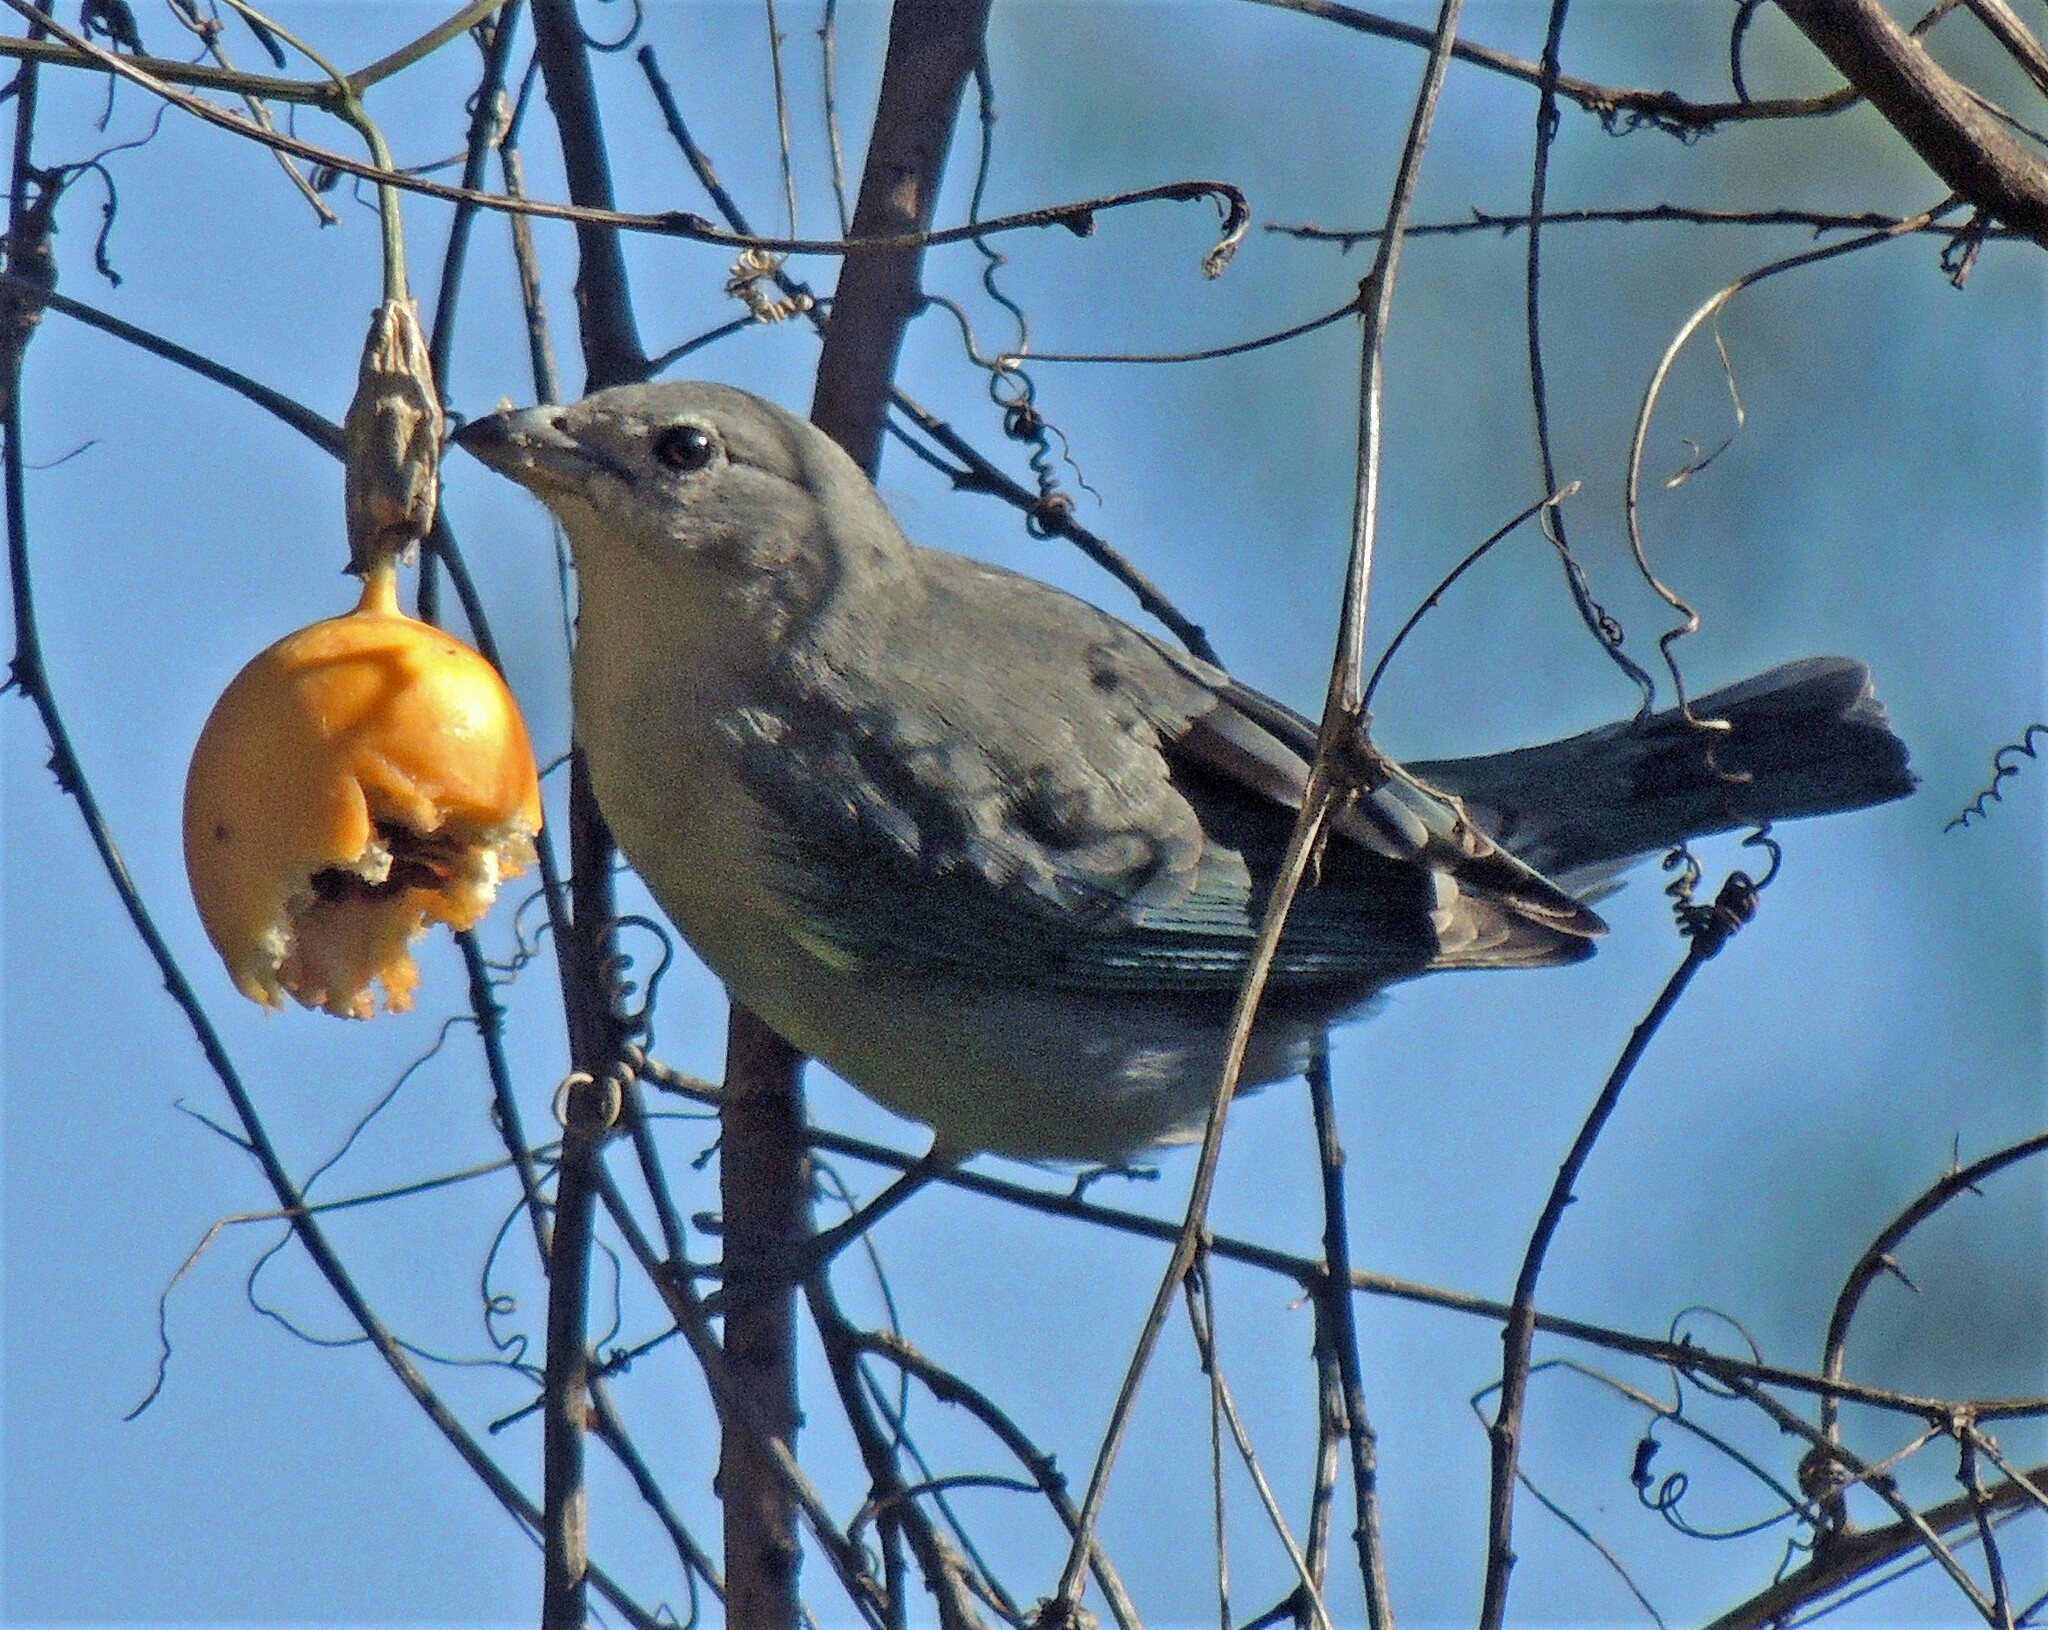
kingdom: Animalia
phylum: Chordata
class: Aves
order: Passeriformes
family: Thraupidae
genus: Thraupis
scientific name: Thraupis sayaca
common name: Sayaca tanager
